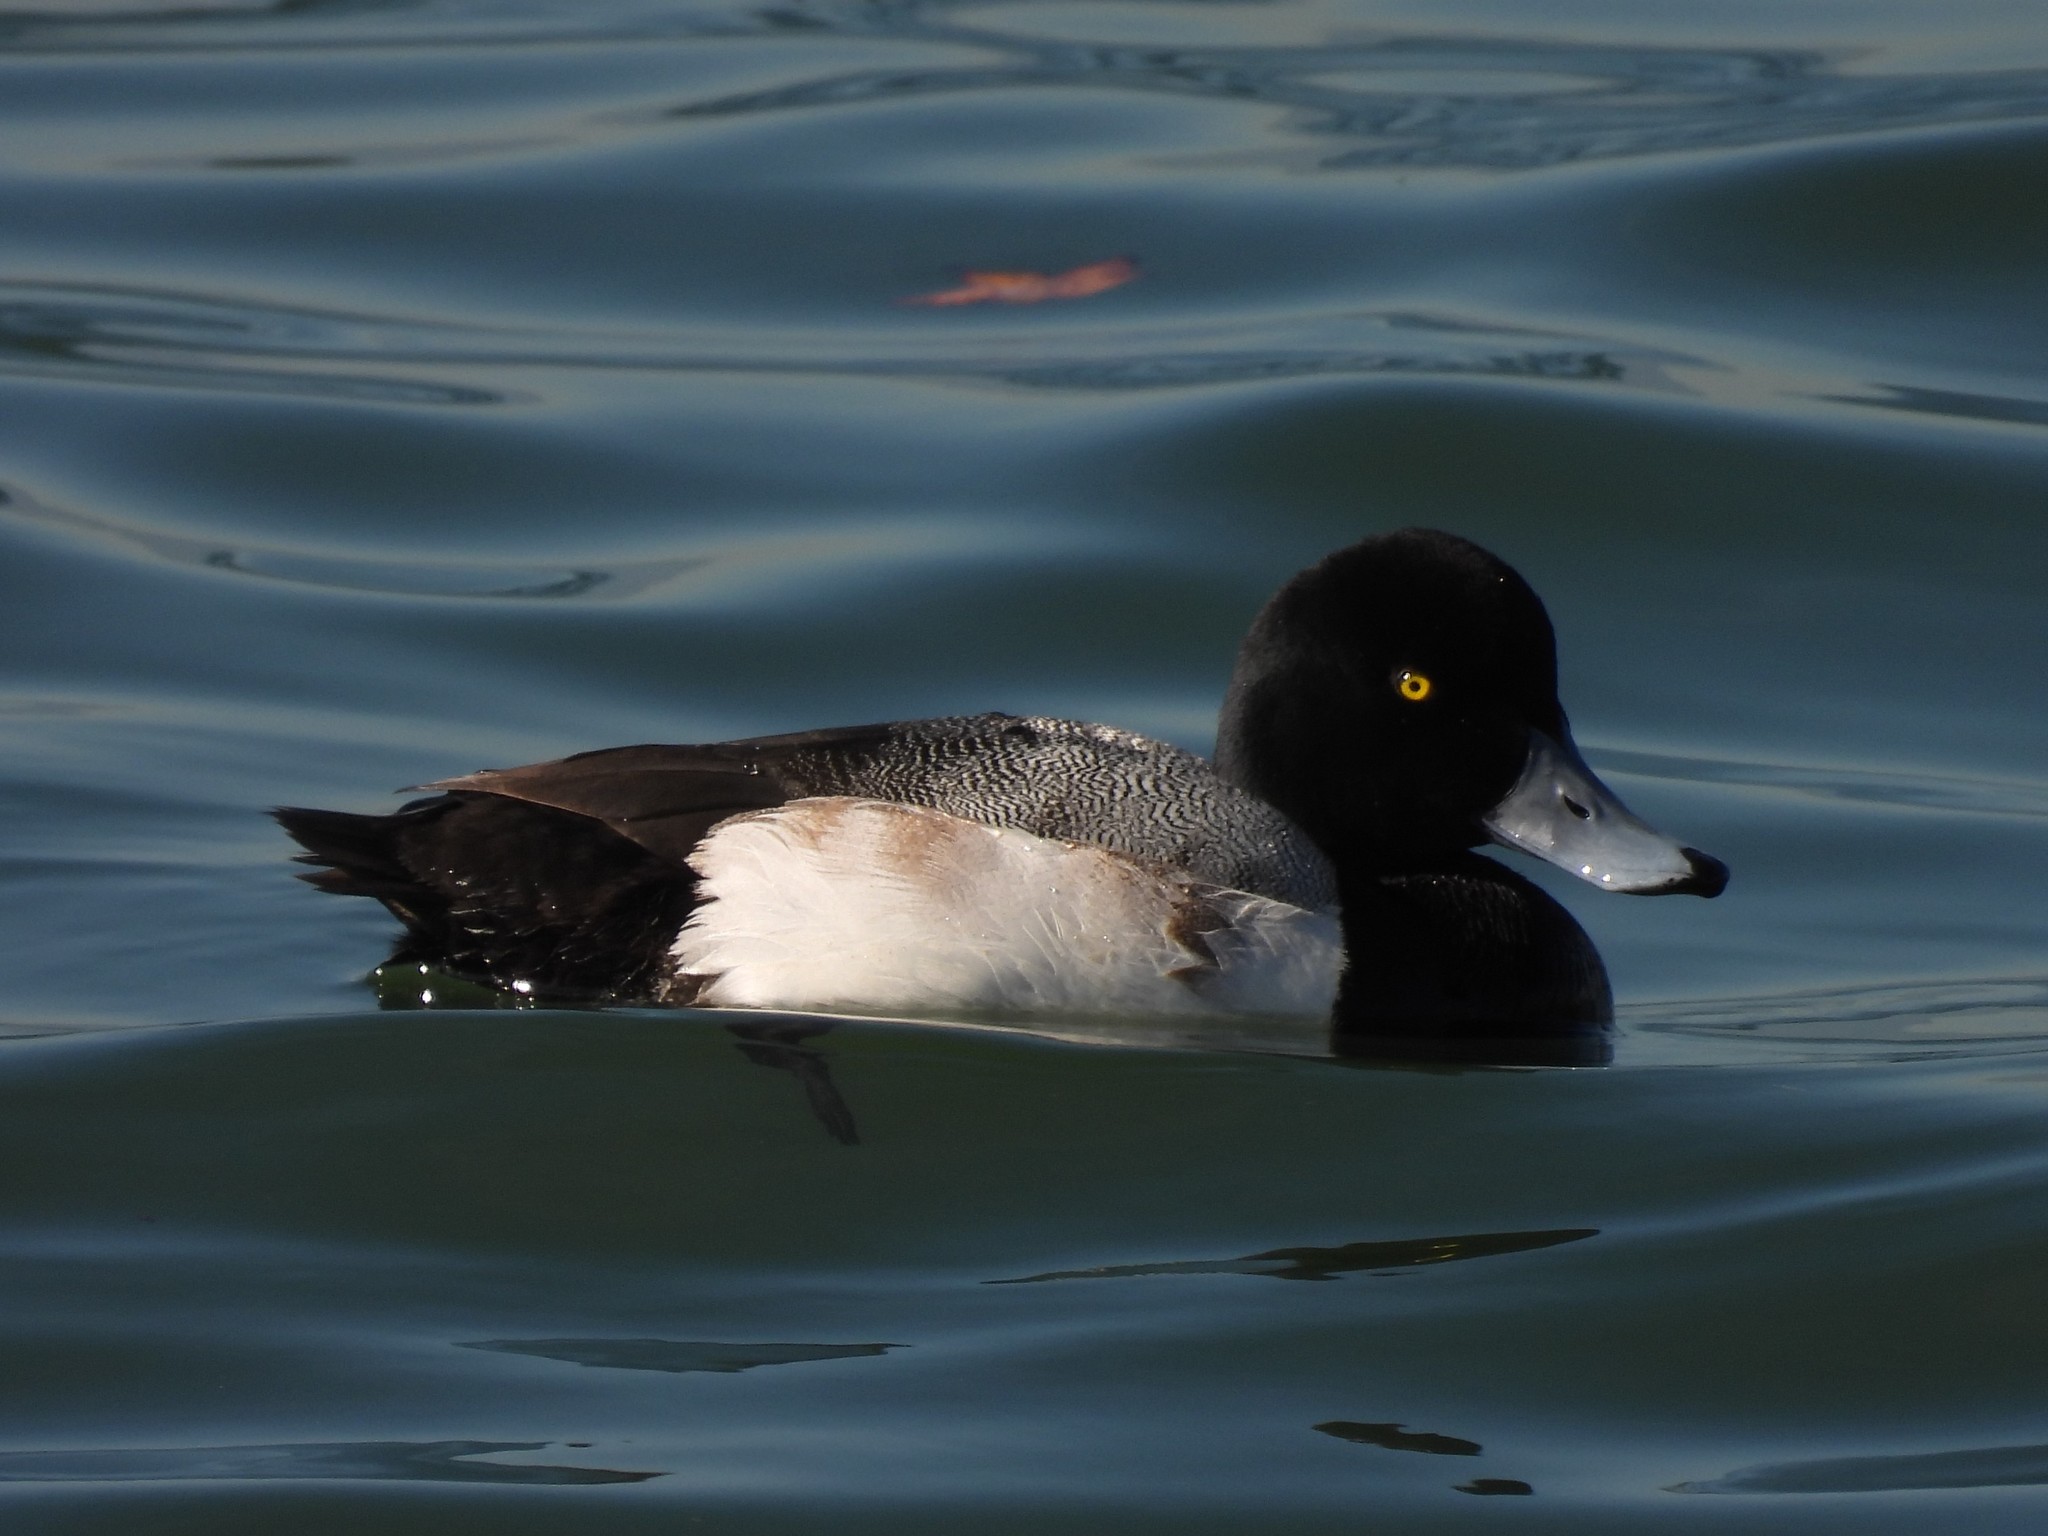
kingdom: Animalia
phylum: Chordata
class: Aves
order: Anseriformes
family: Anatidae
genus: Aythya
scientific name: Aythya marila
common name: Greater scaup
